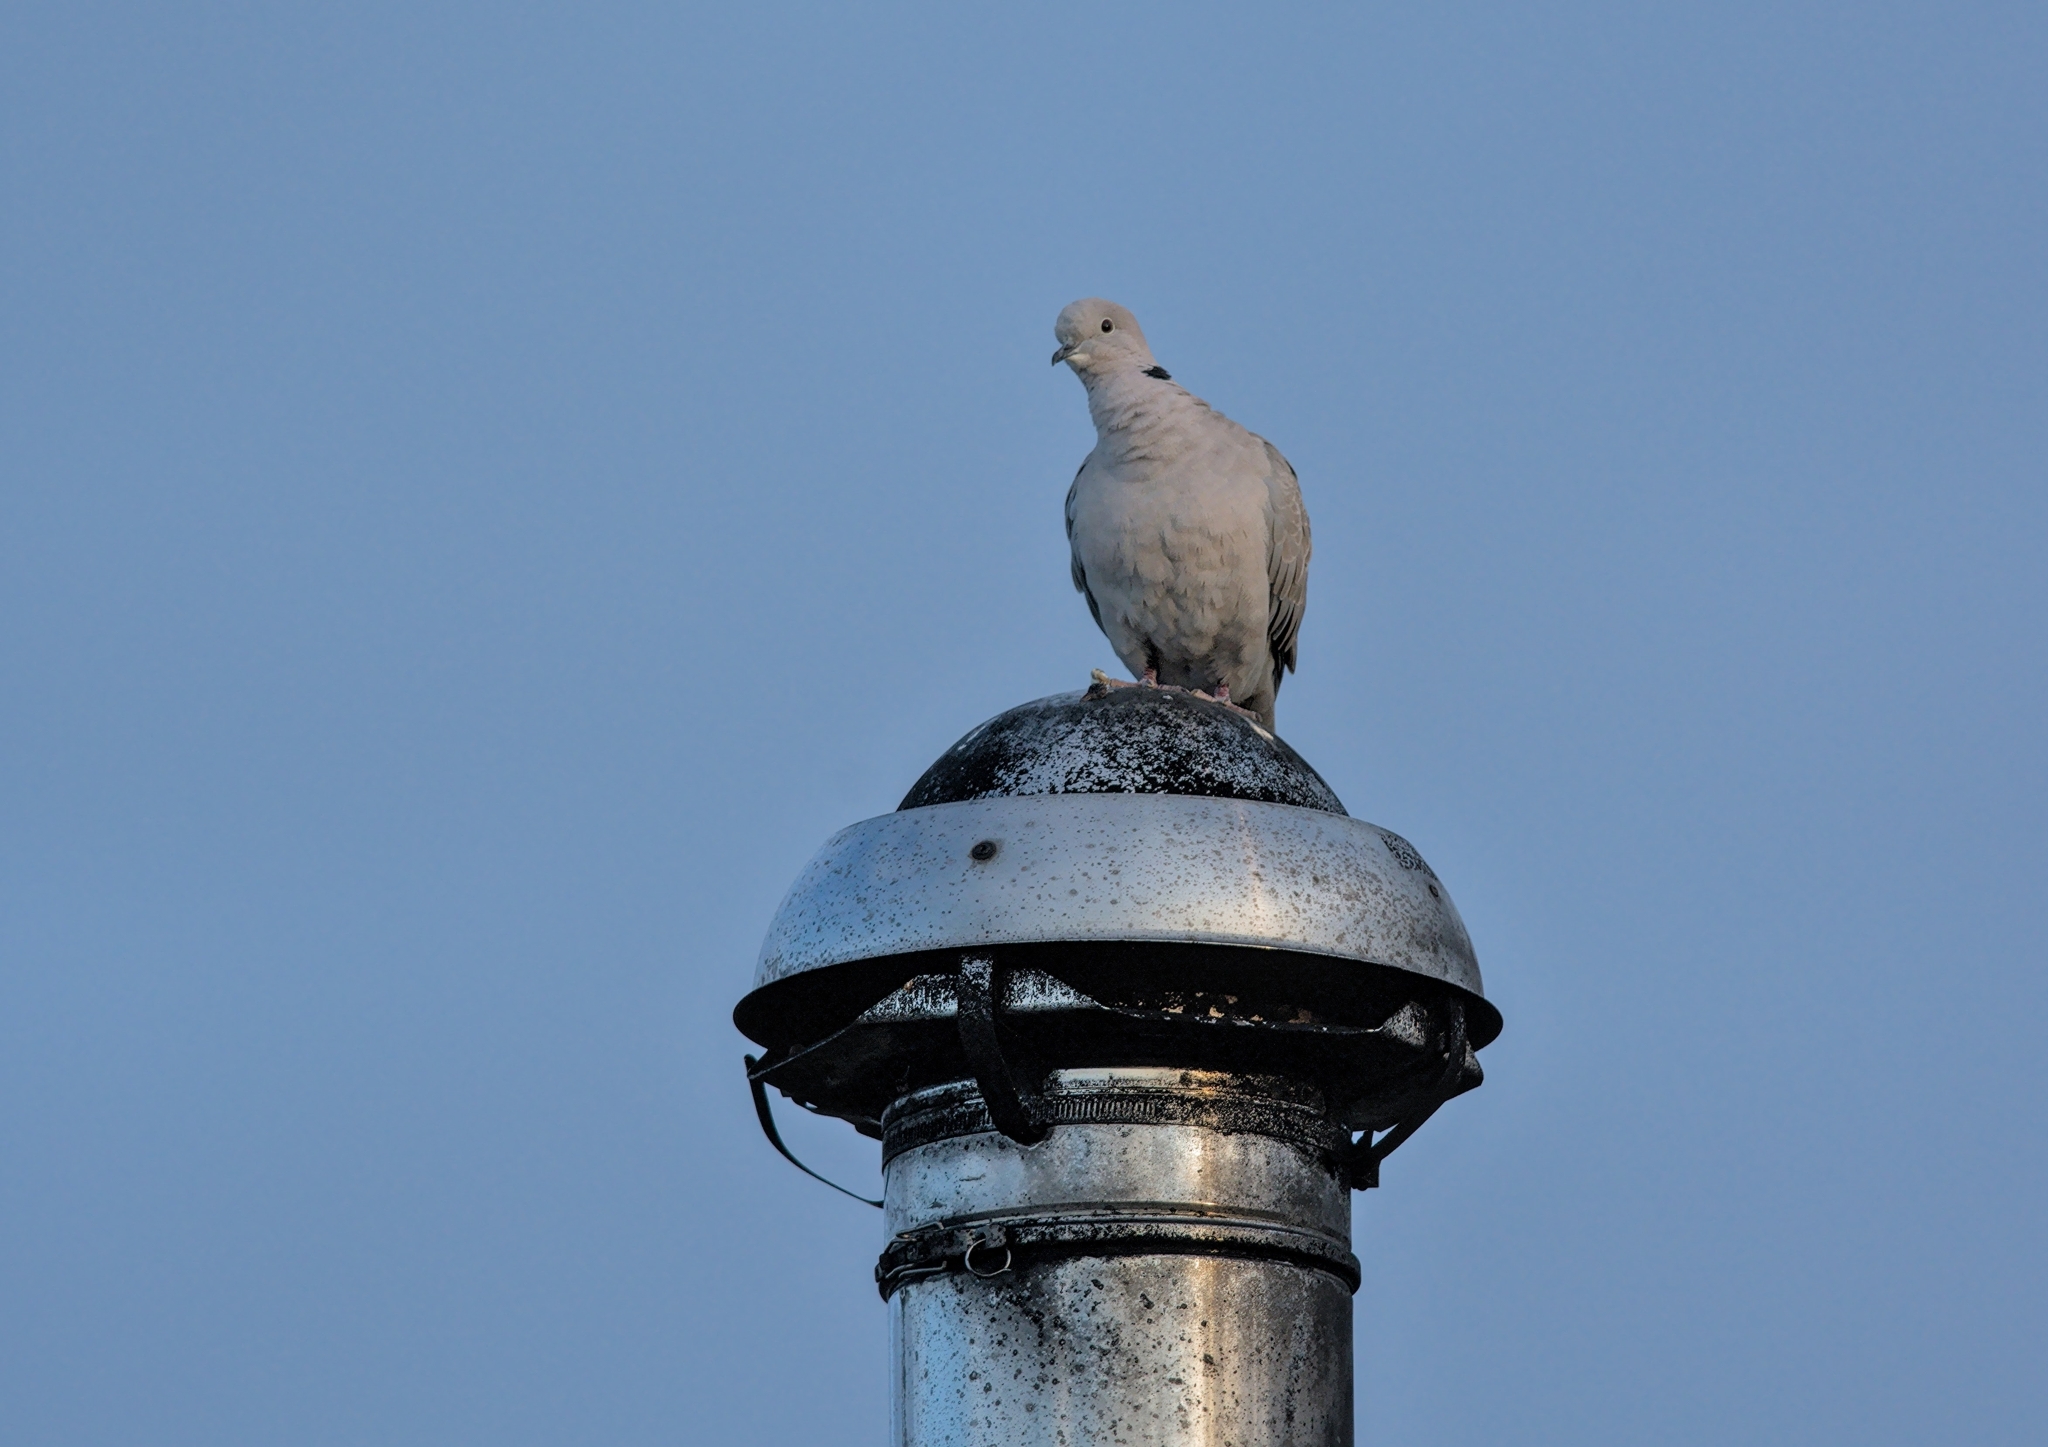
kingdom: Animalia
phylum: Chordata
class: Aves
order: Columbiformes
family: Columbidae
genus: Streptopelia
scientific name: Streptopelia decaocto
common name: Eurasian collared dove
